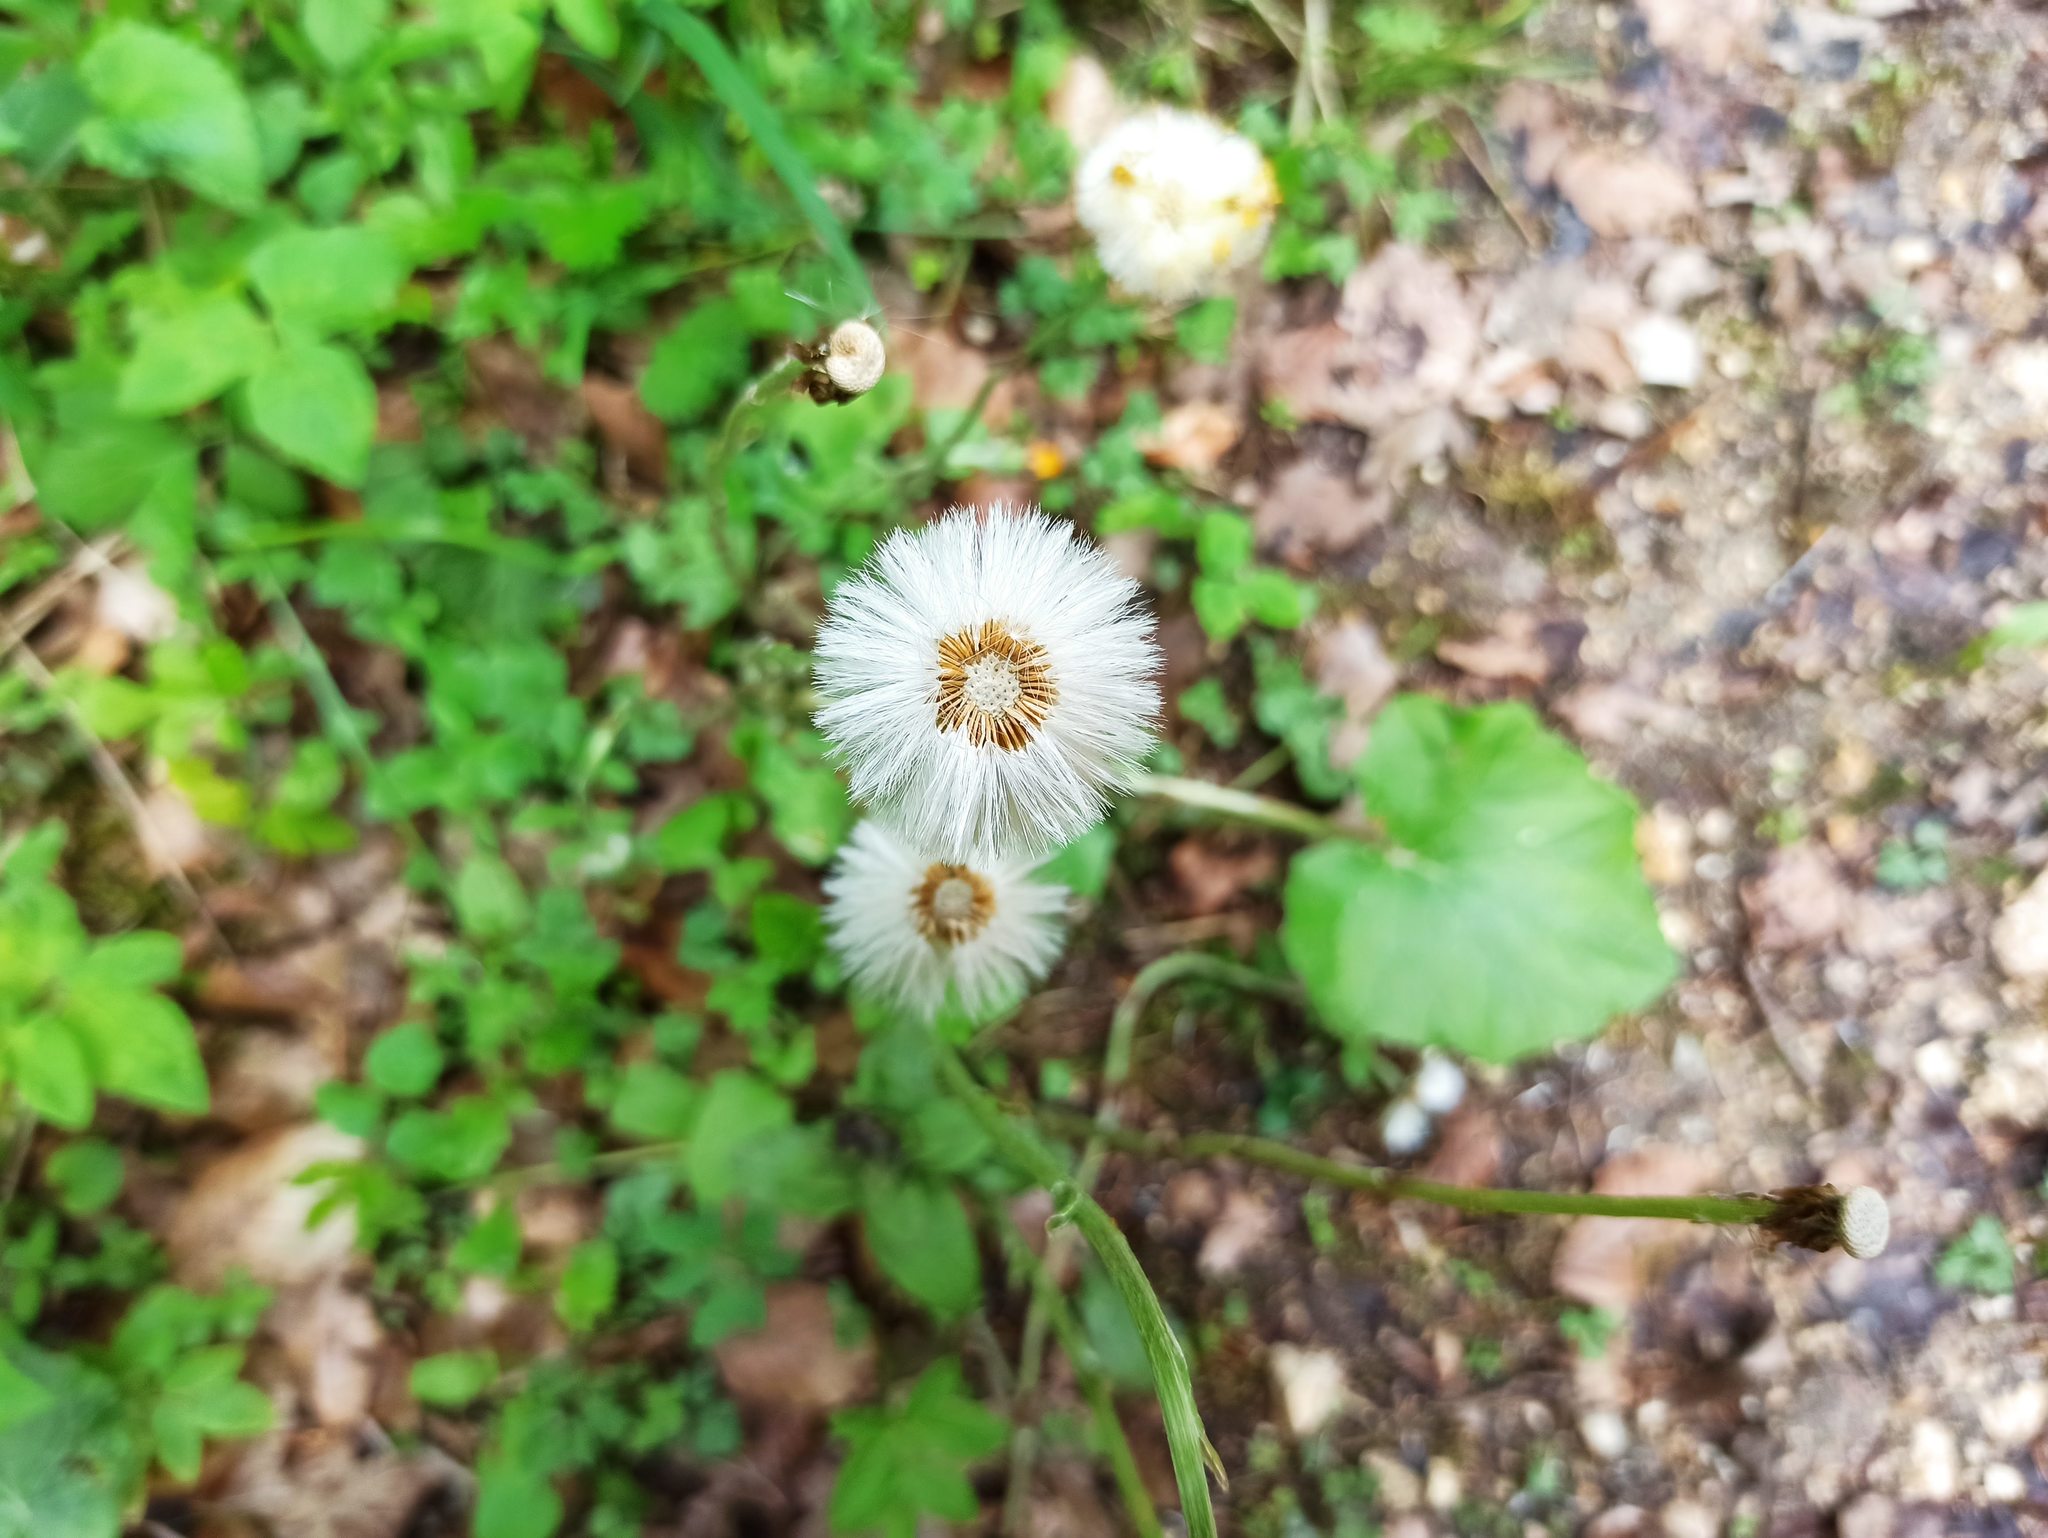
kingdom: Plantae
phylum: Tracheophyta
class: Magnoliopsida
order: Asterales
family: Asteraceae
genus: Tussilago
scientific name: Tussilago farfara
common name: Coltsfoot
